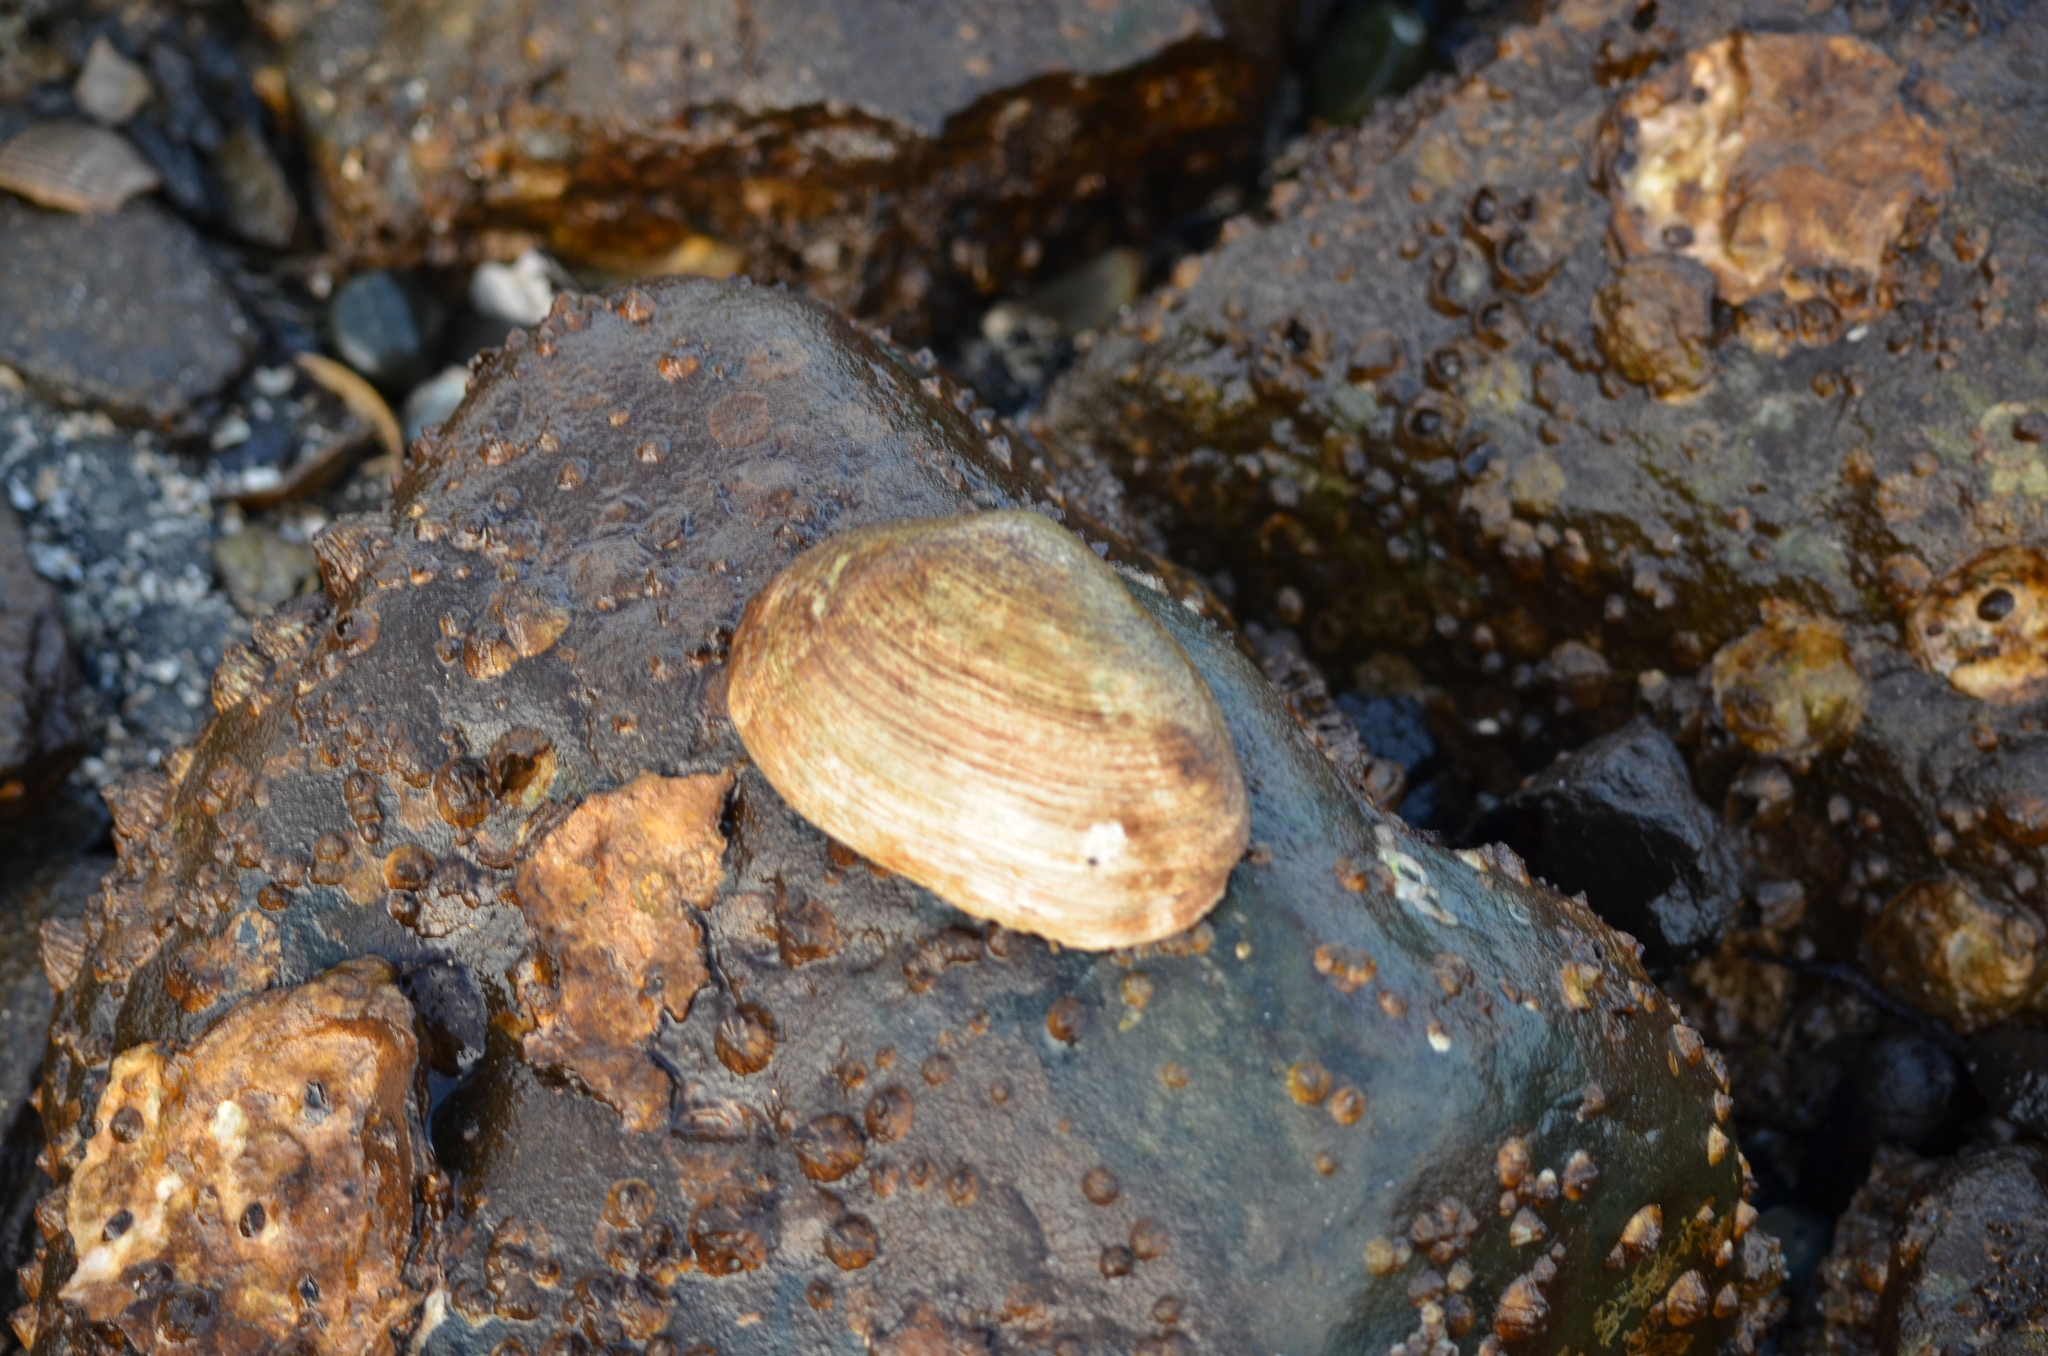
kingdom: Animalia
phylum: Mollusca
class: Bivalvia
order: Venerida
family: Veneridae
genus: Saxidomus
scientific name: Saxidomus gigantea
